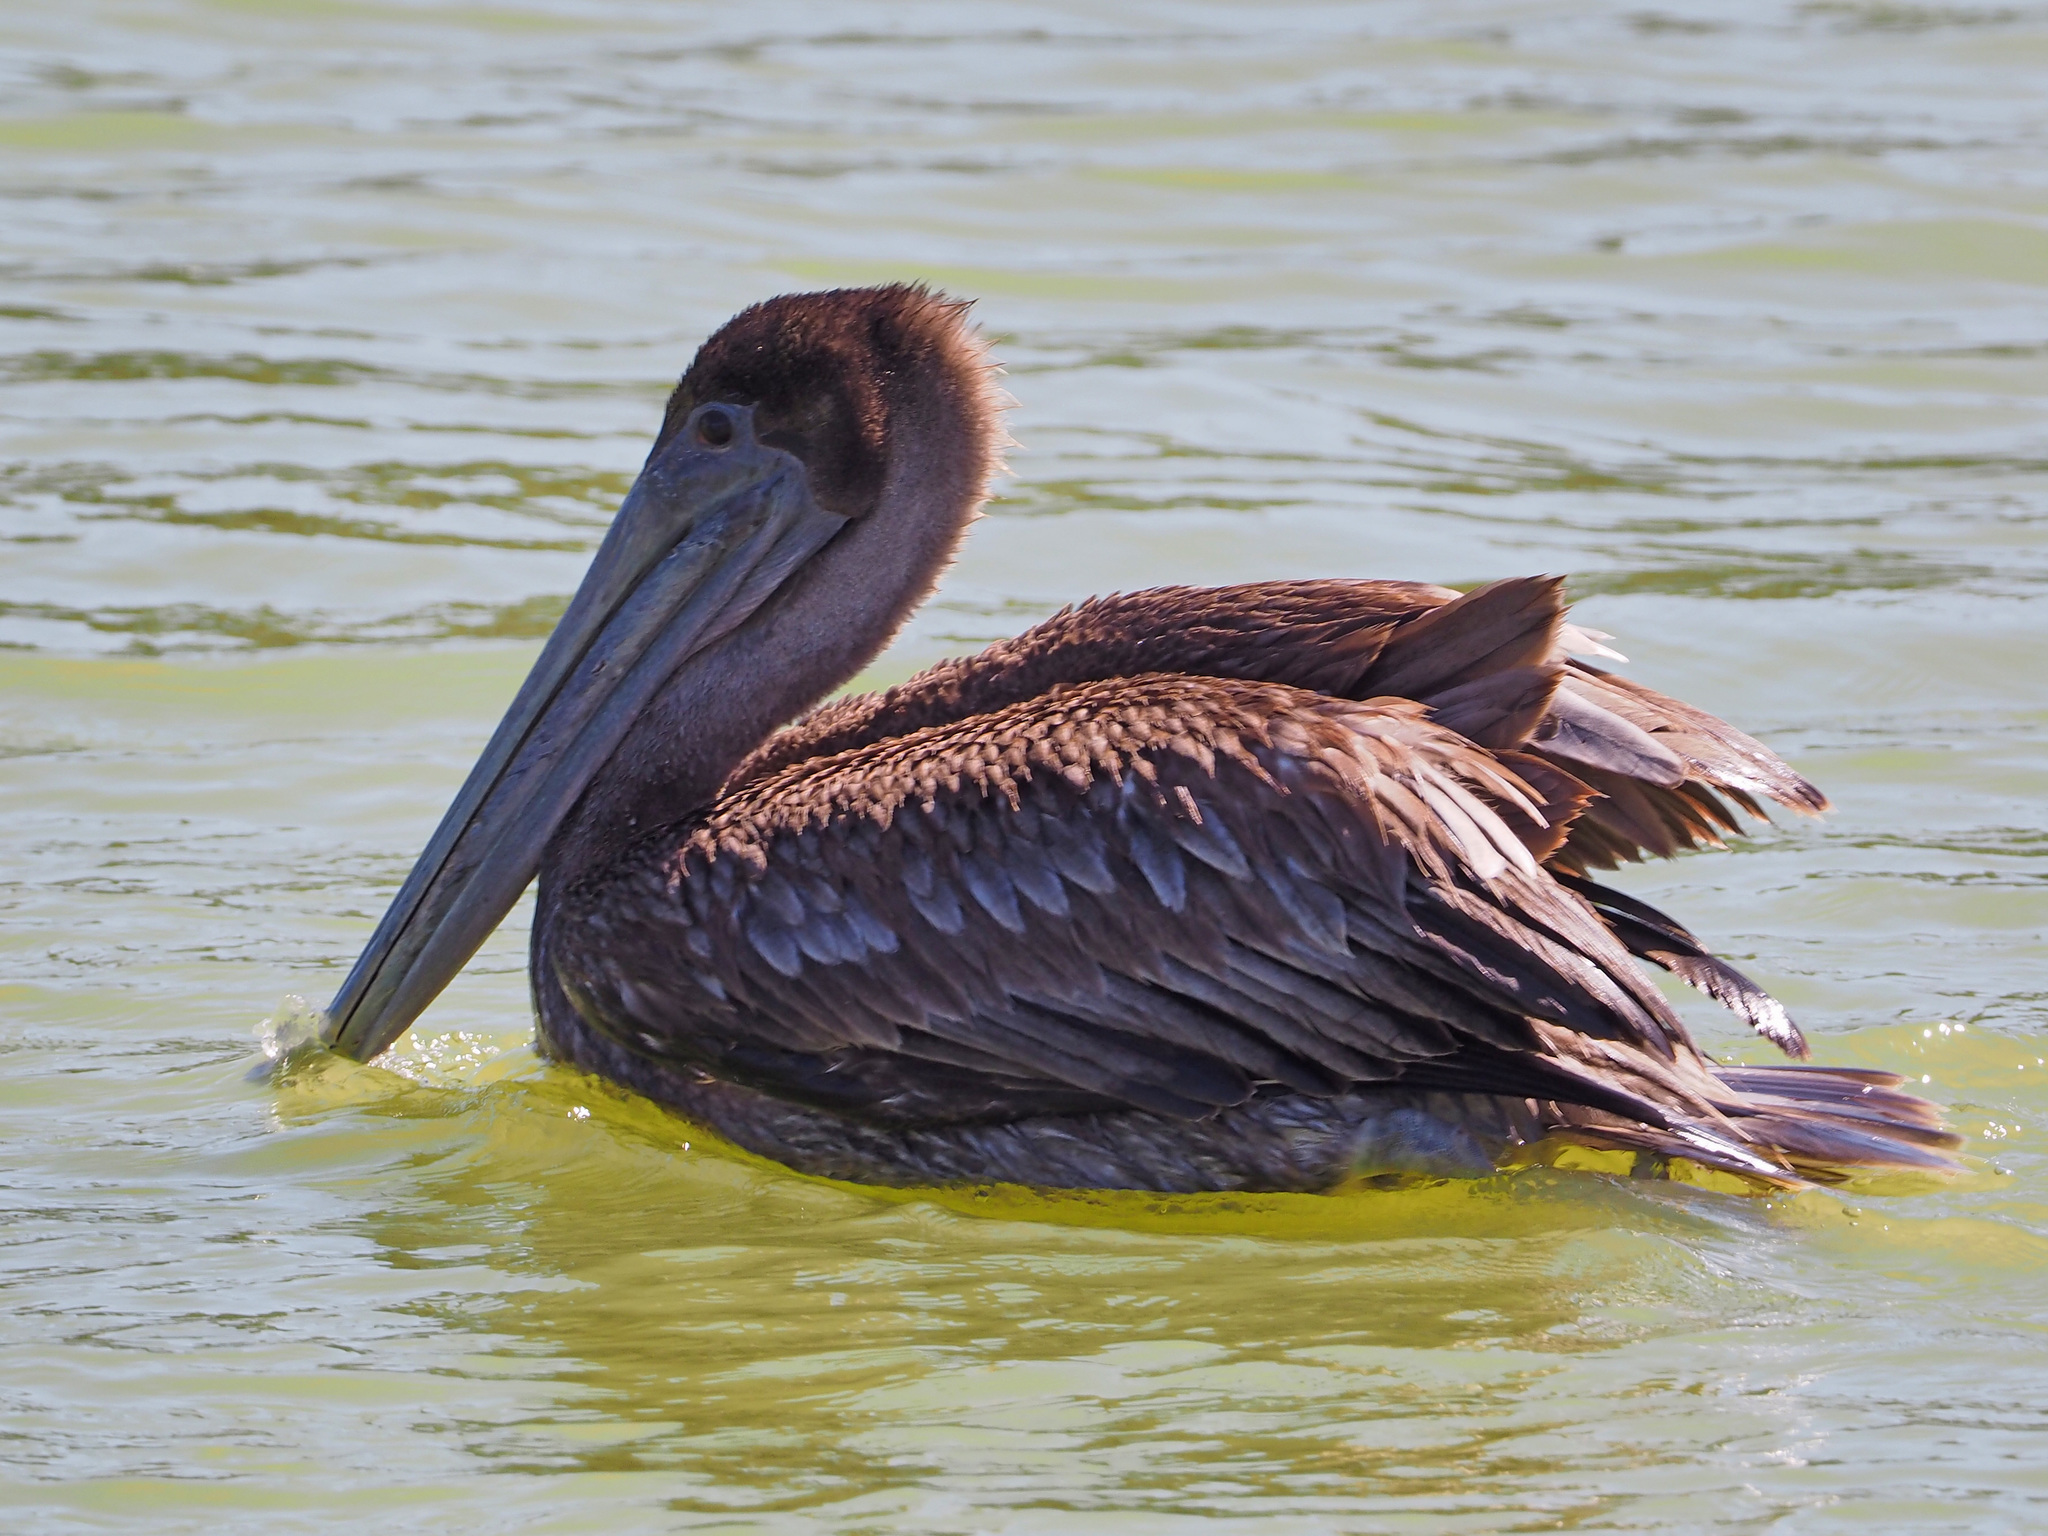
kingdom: Animalia
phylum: Chordata
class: Aves
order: Pelecaniformes
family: Pelecanidae
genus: Pelecanus
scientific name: Pelecanus occidentalis
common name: Brown pelican
